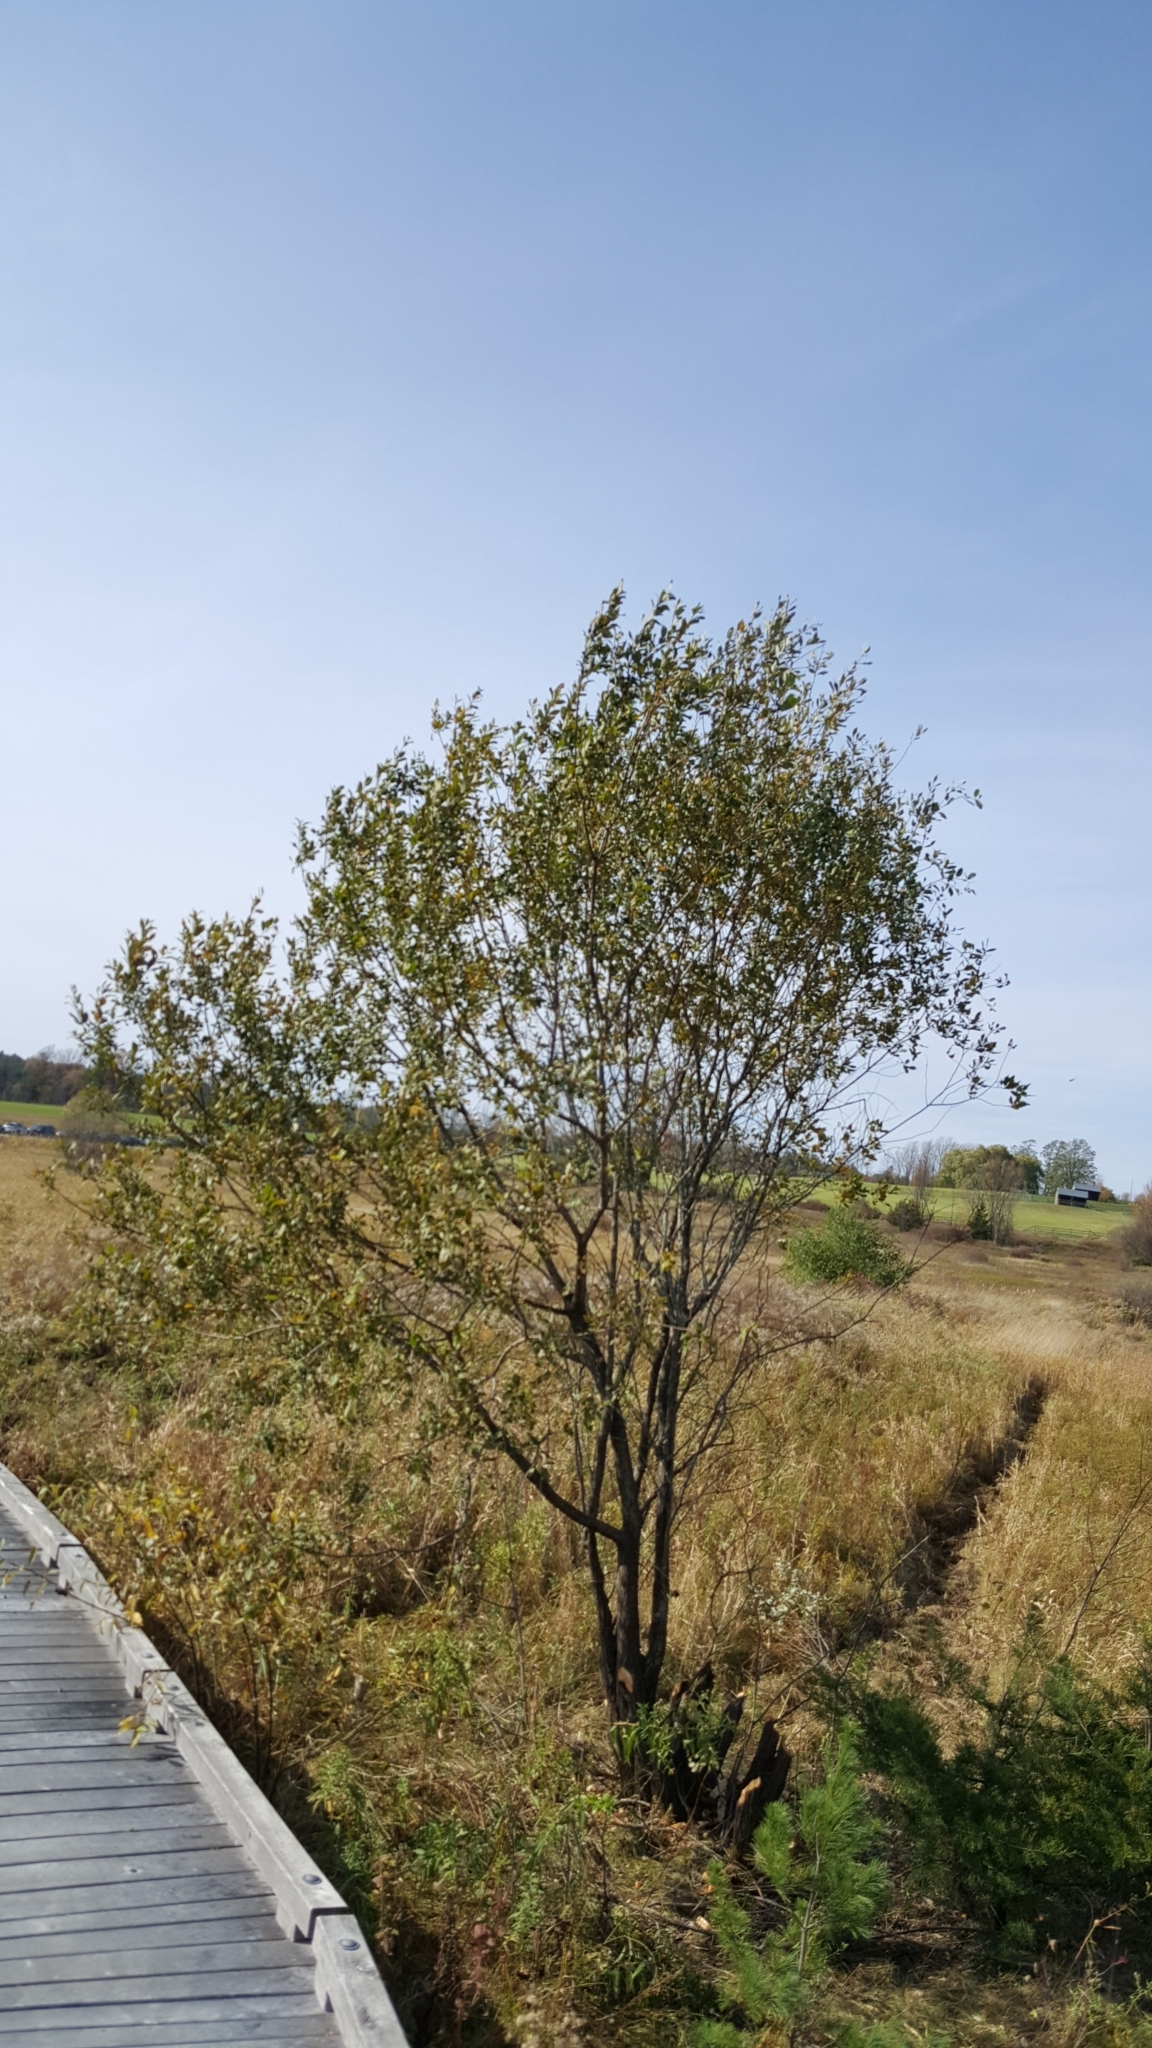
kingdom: Plantae
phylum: Tracheophyta
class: Magnoliopsida
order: Malpighiales
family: Salicaceae
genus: Salix
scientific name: Salix bebbiana
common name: Bebb's willow
